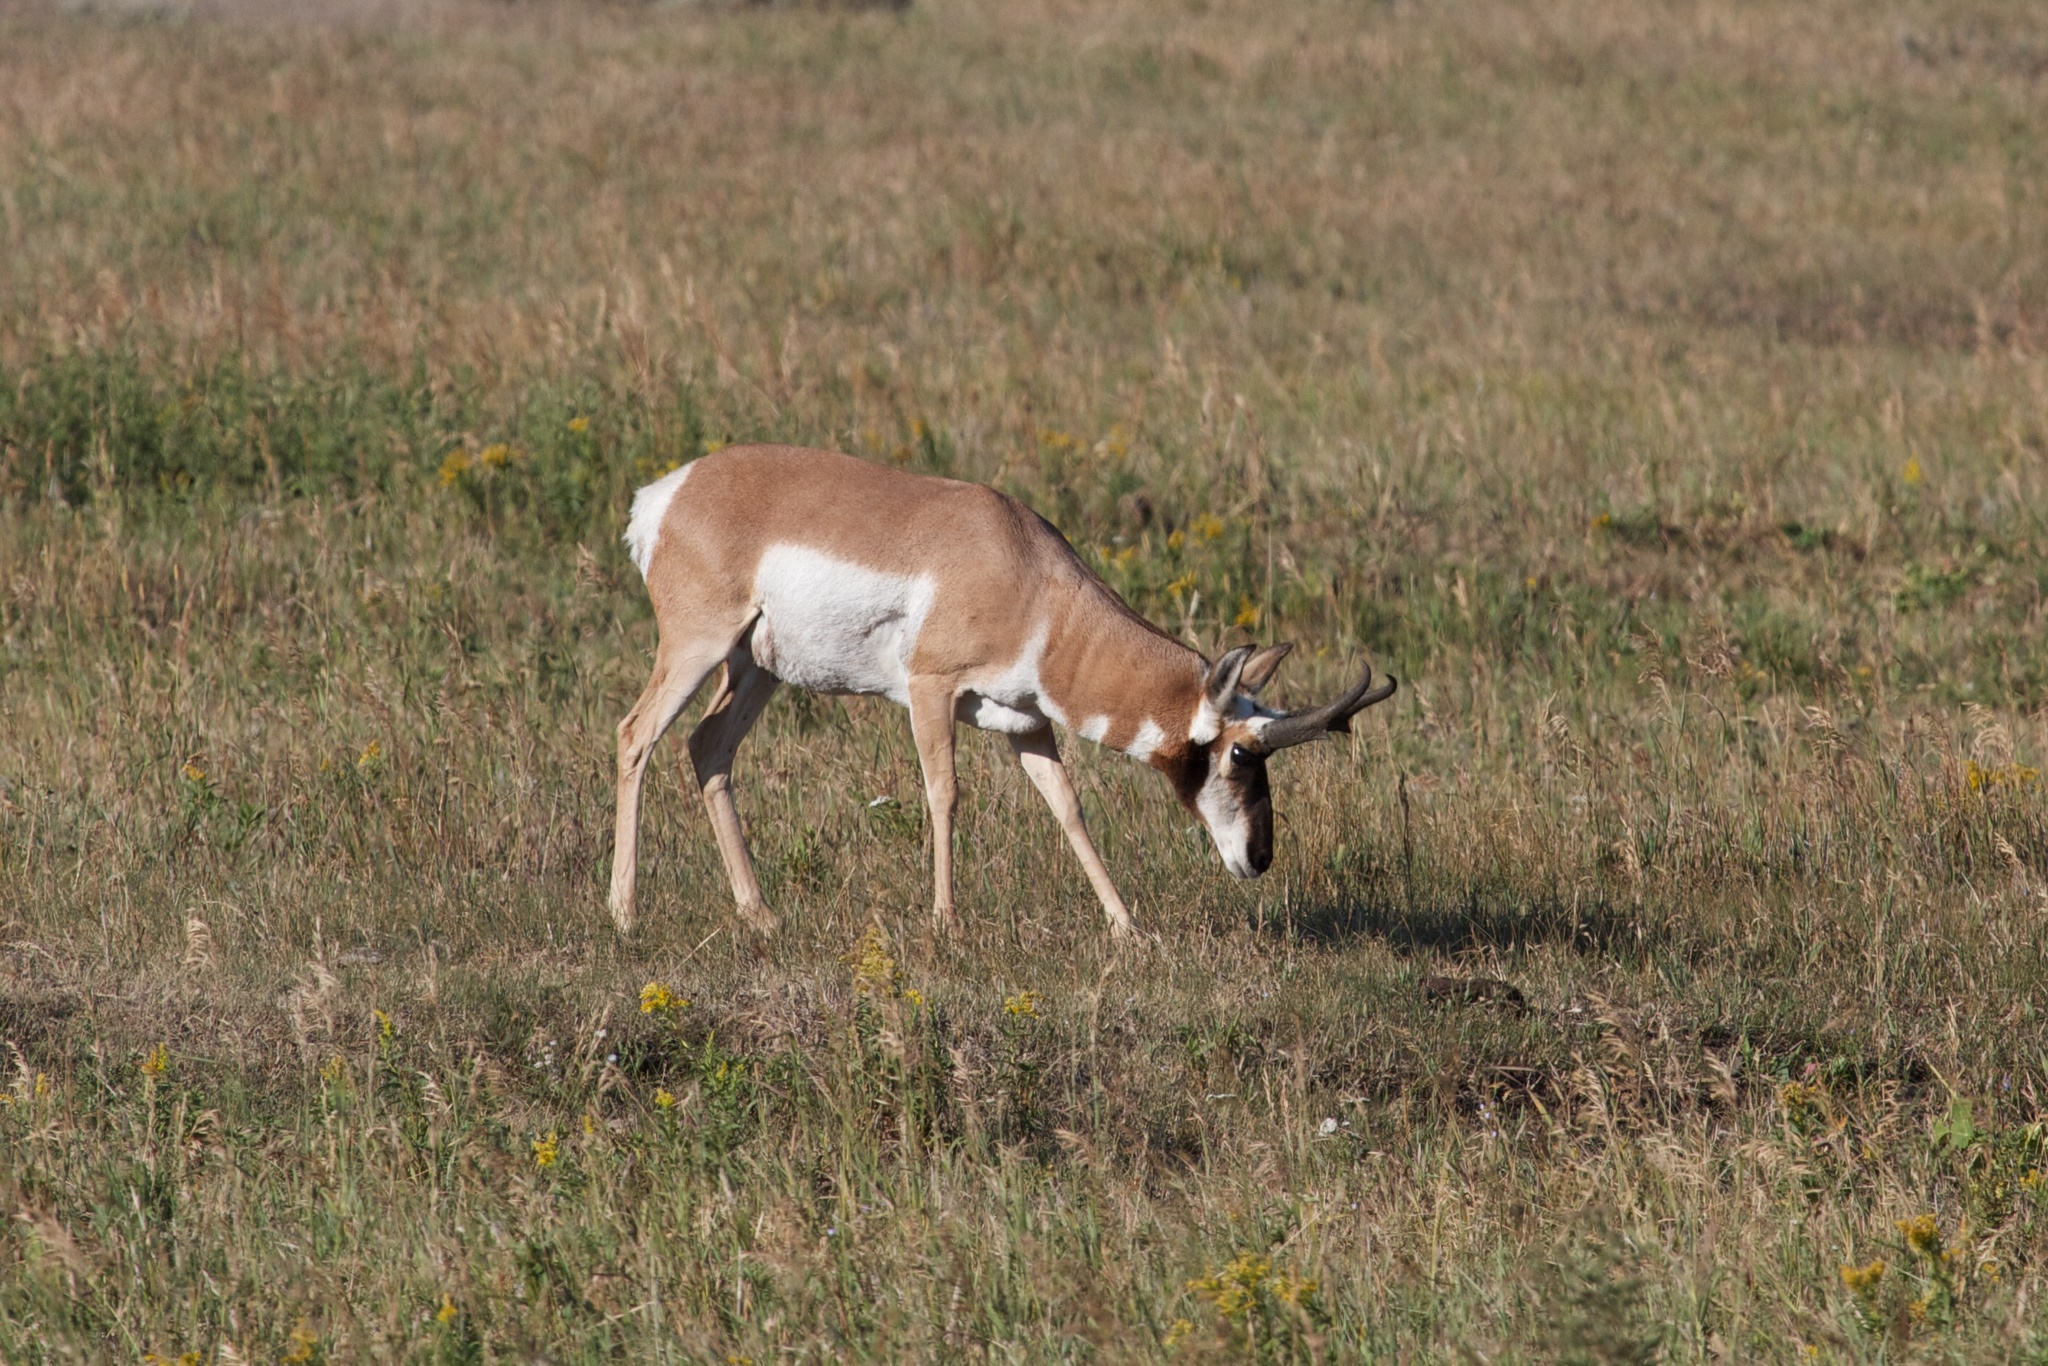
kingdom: Animalia
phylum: Chordata
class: Mammalia
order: Artiodactyla
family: Antilocapridae
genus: Antilocapra
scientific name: Antilocapra americana
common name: Pronghorn
